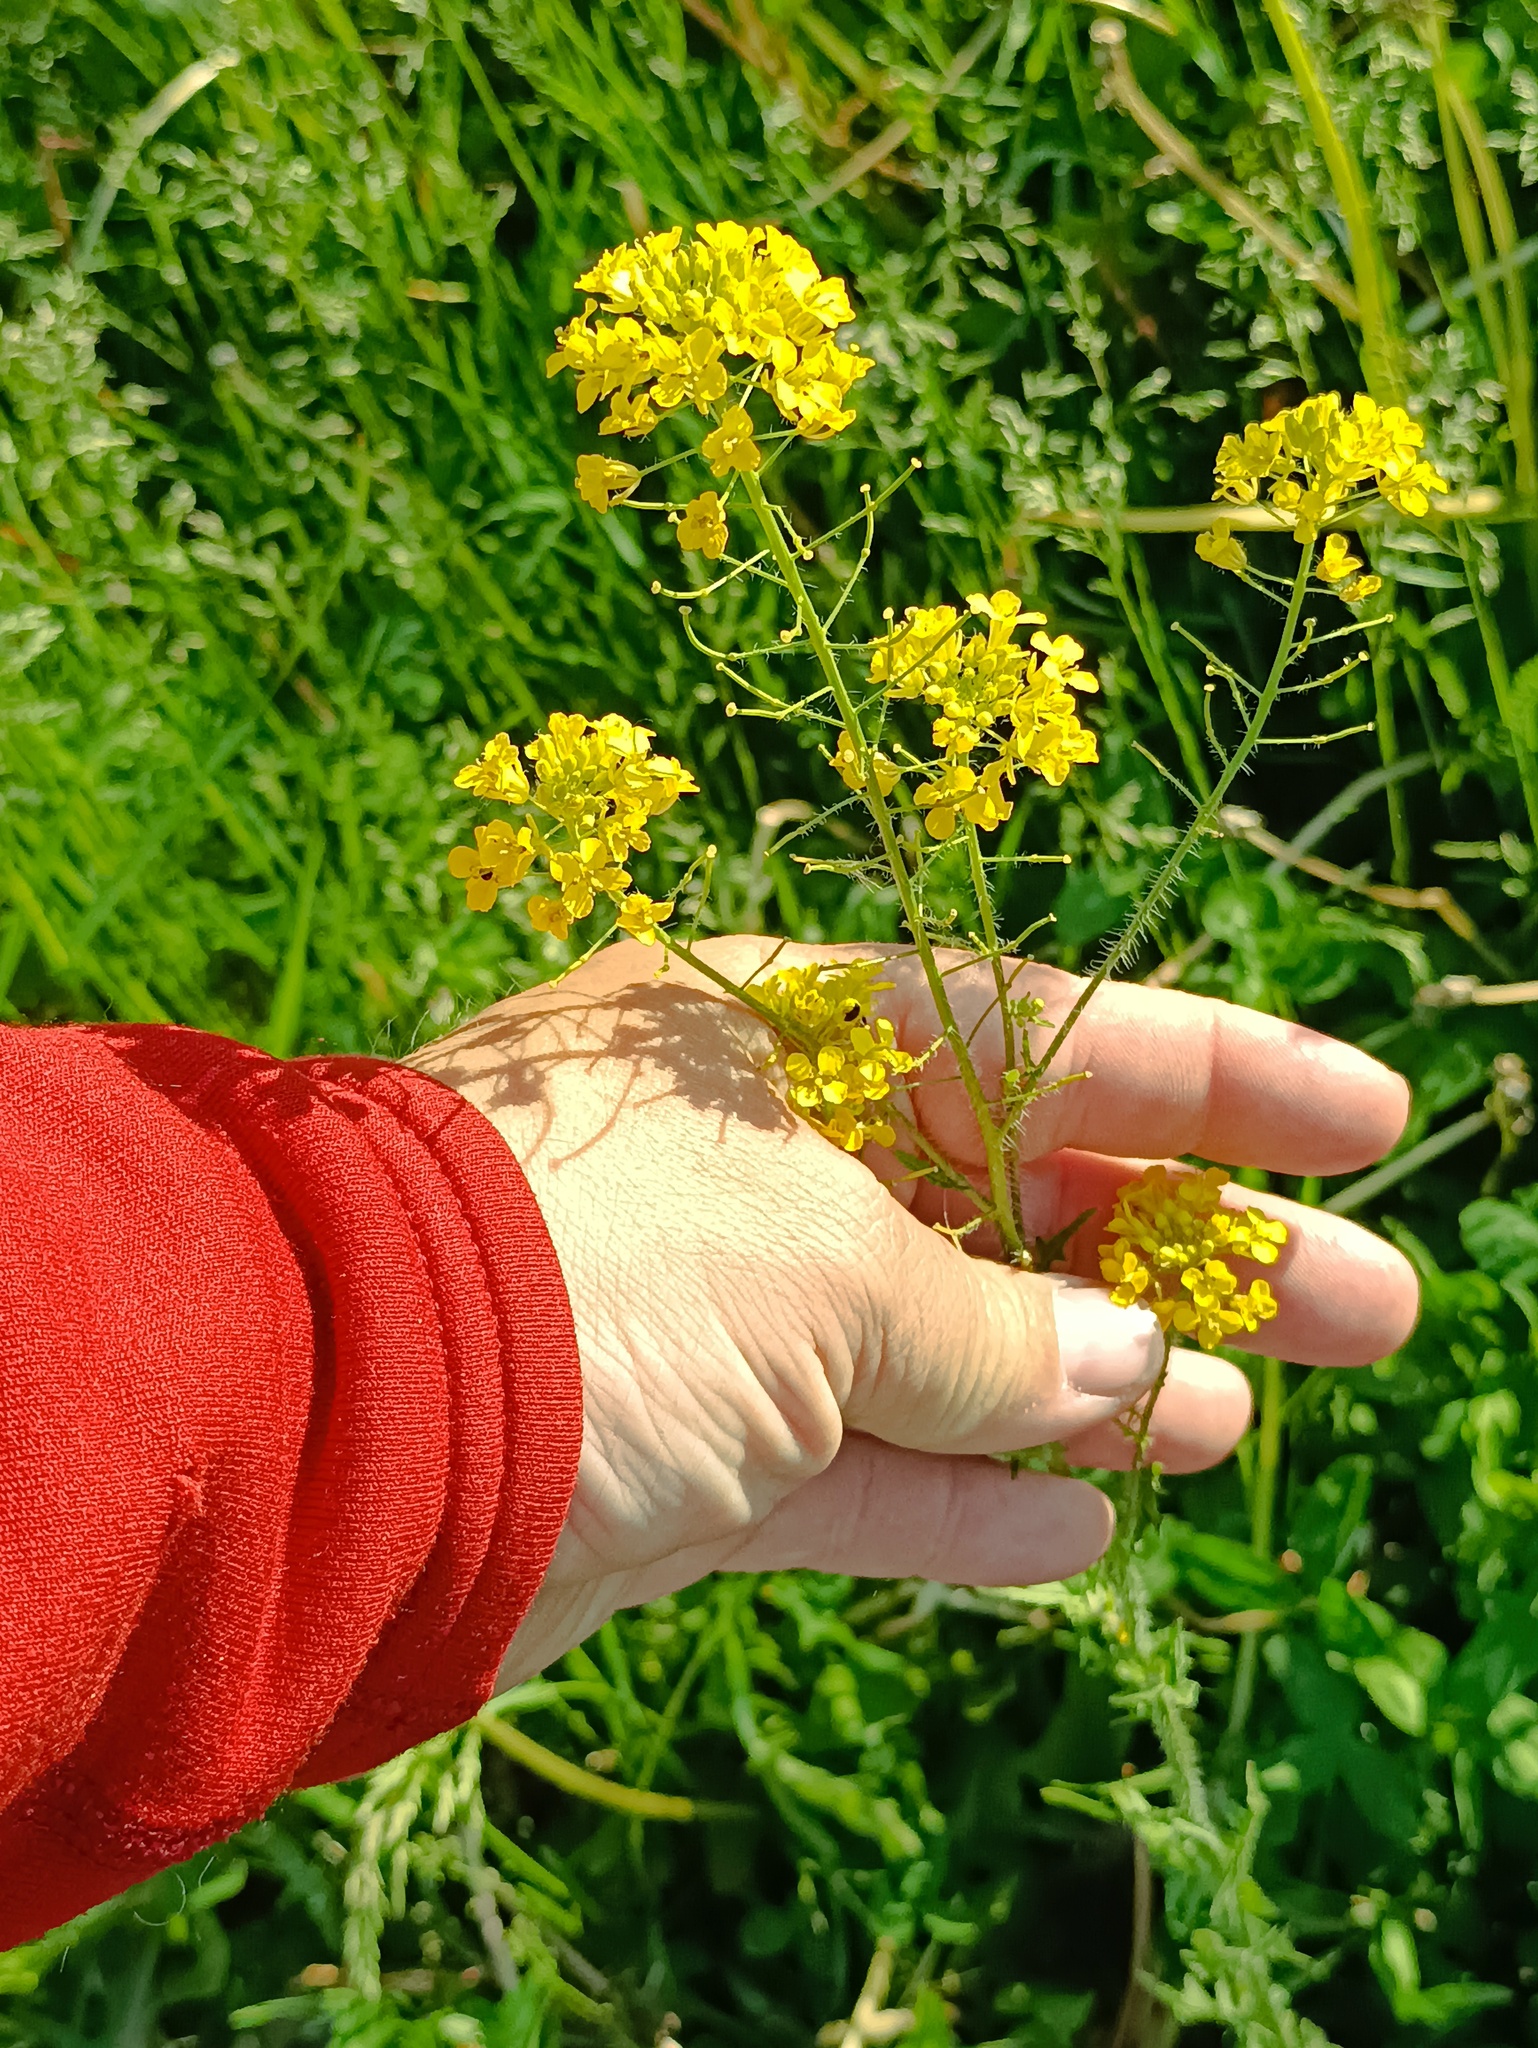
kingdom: Plantae
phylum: Tracheophyta
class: Magnoliopsida
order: Brassicales
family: Brassicaceae
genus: Sisymbrium
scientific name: Sisymbrium loeselii
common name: False london-rocket
